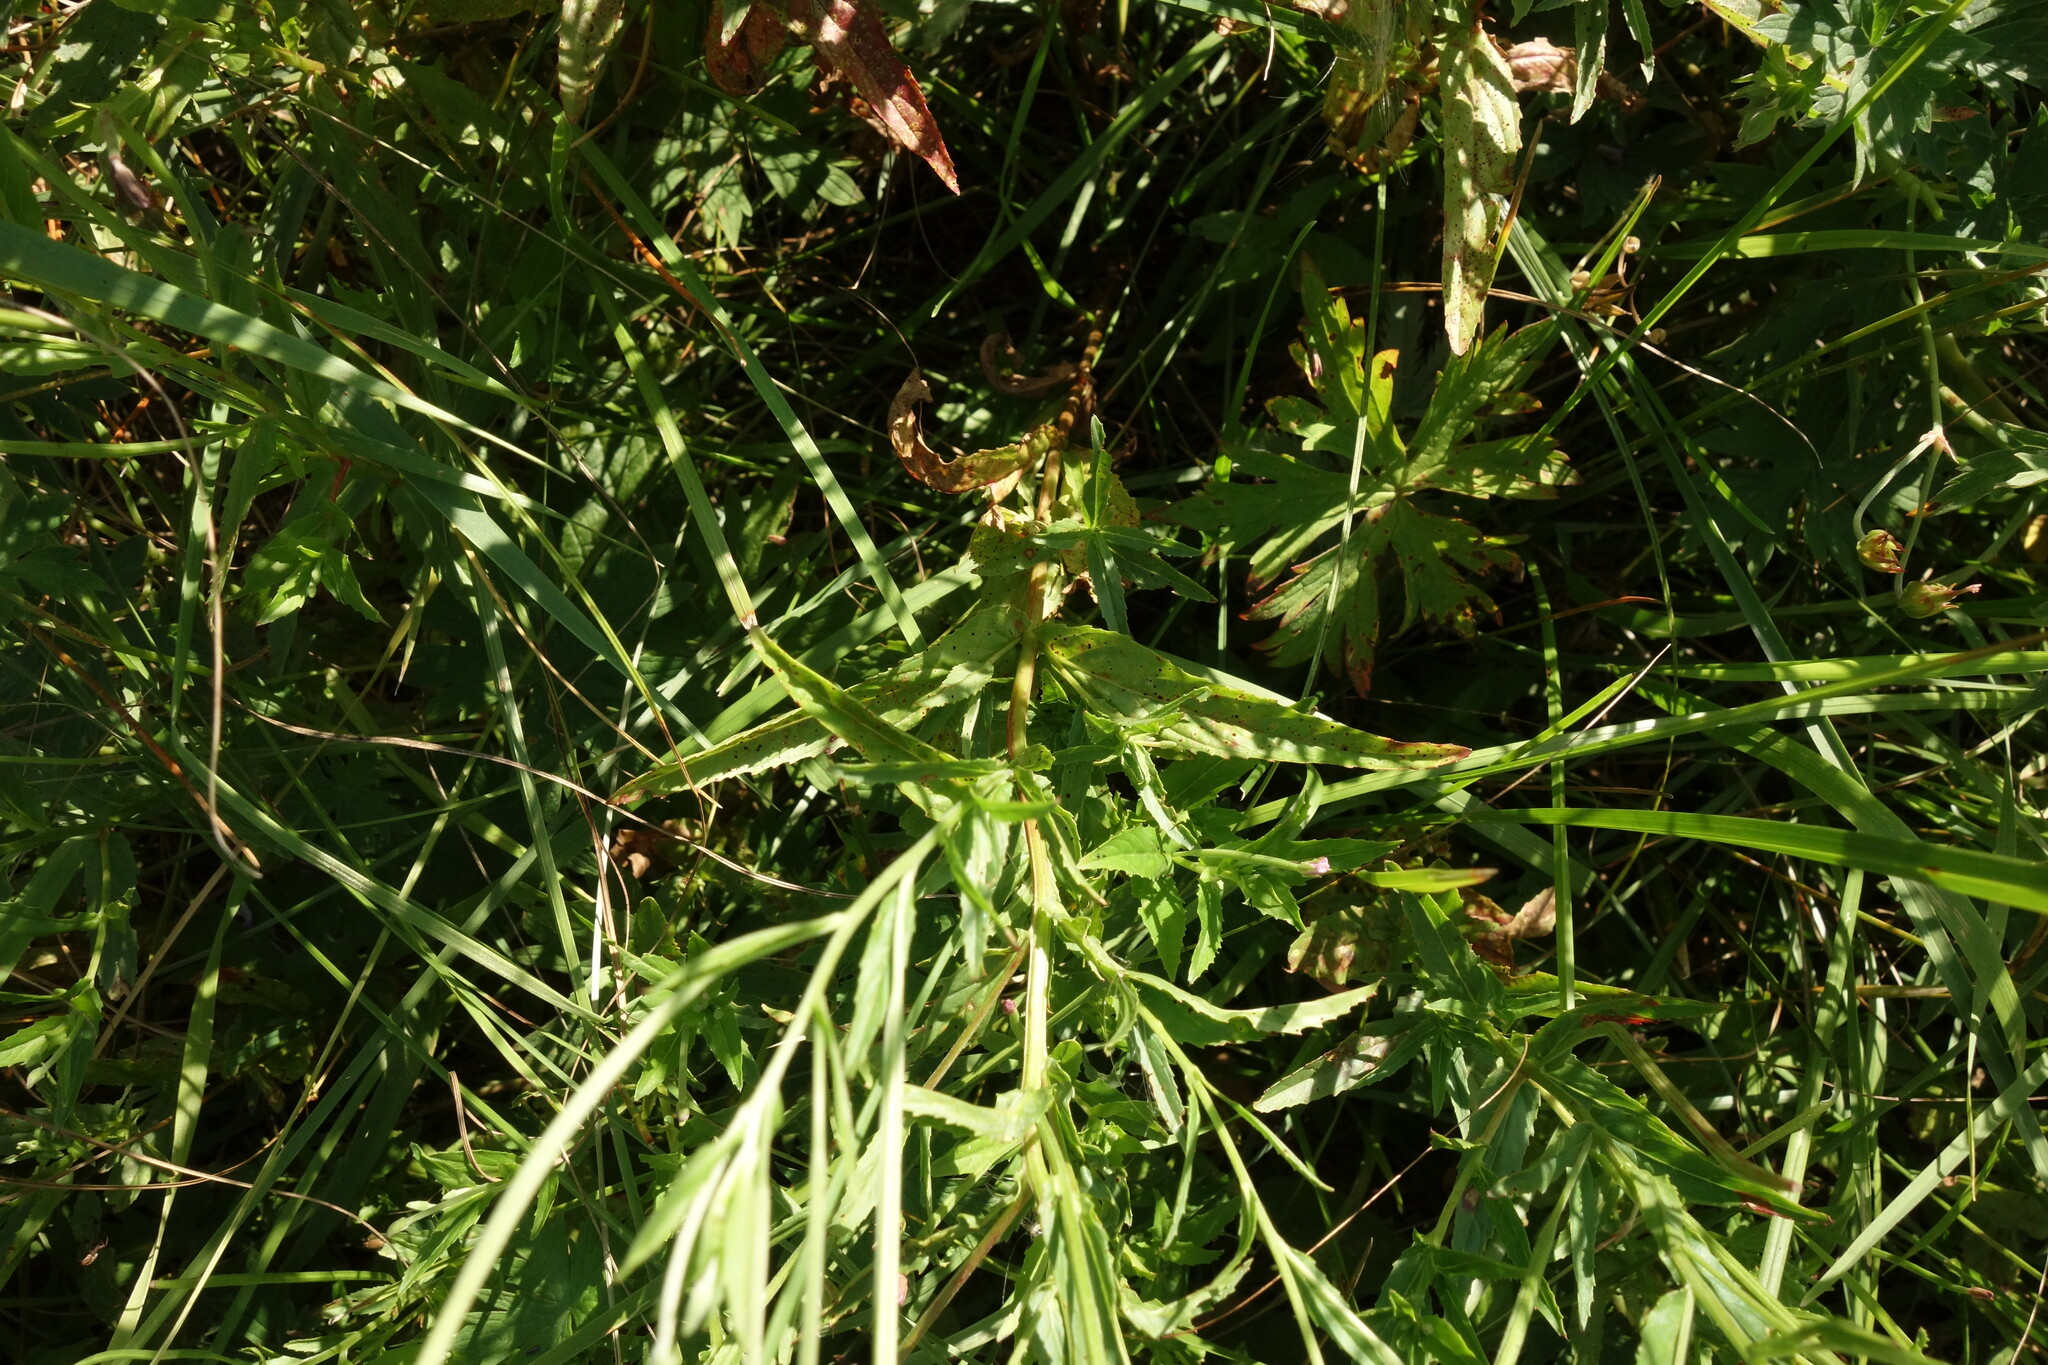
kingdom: Plantae
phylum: Tracheophyta
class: Magnoliopsida
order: Myrtales
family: Onagraceae
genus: Epilobium
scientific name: Epilobium tetragonum
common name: Square-stemmed willowherb
